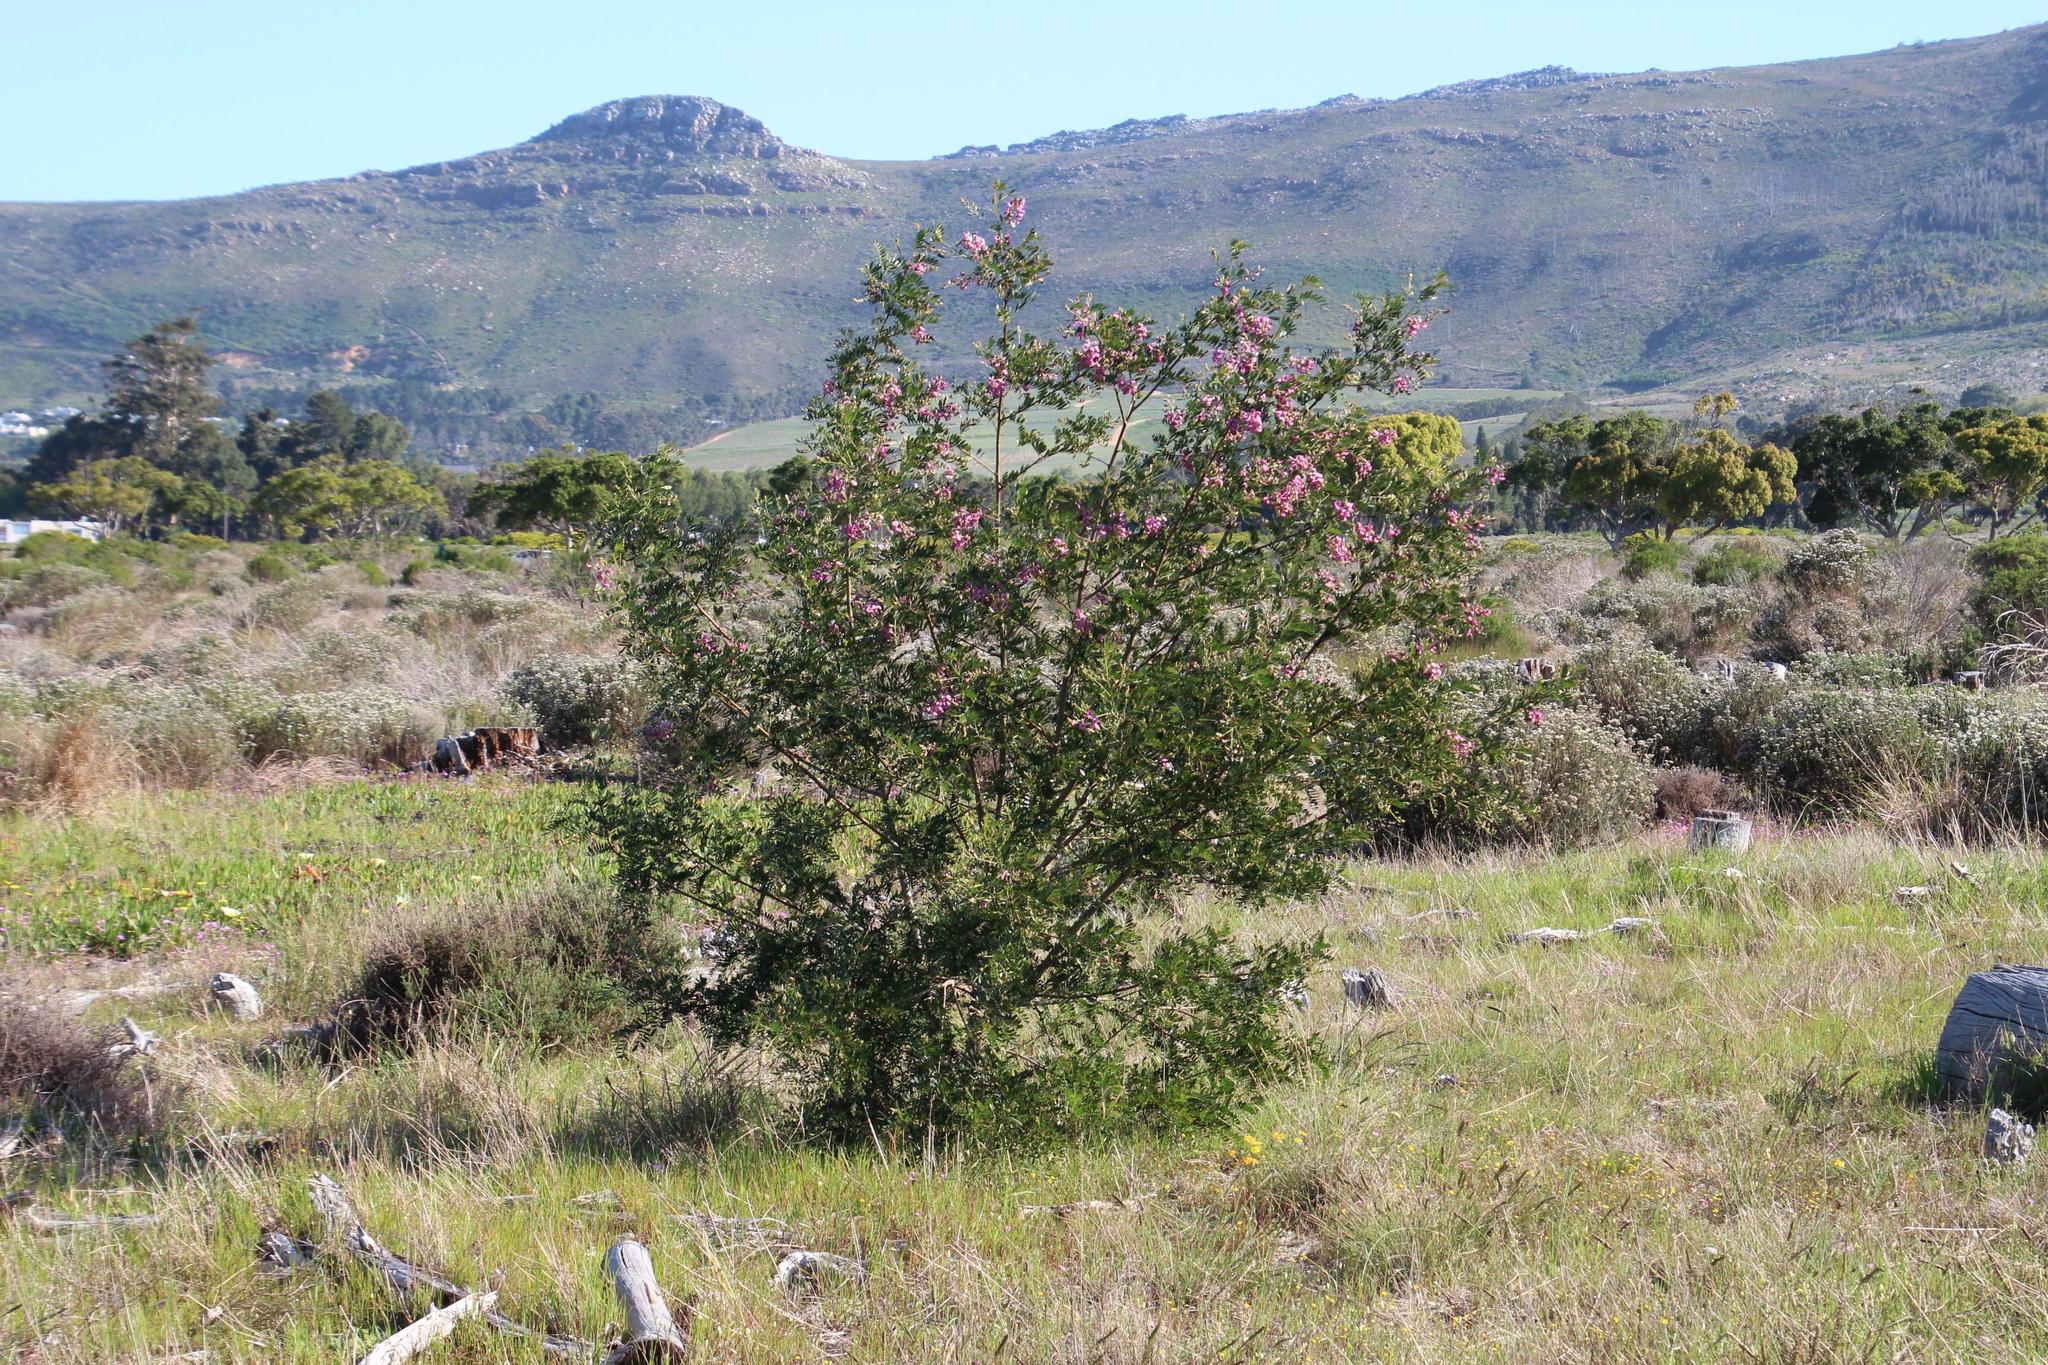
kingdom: Plantae
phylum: Tracheophyta
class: Magnoliopsida
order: Fabales
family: Fabaceae
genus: Virgilia
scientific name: Virgilia oroboides
